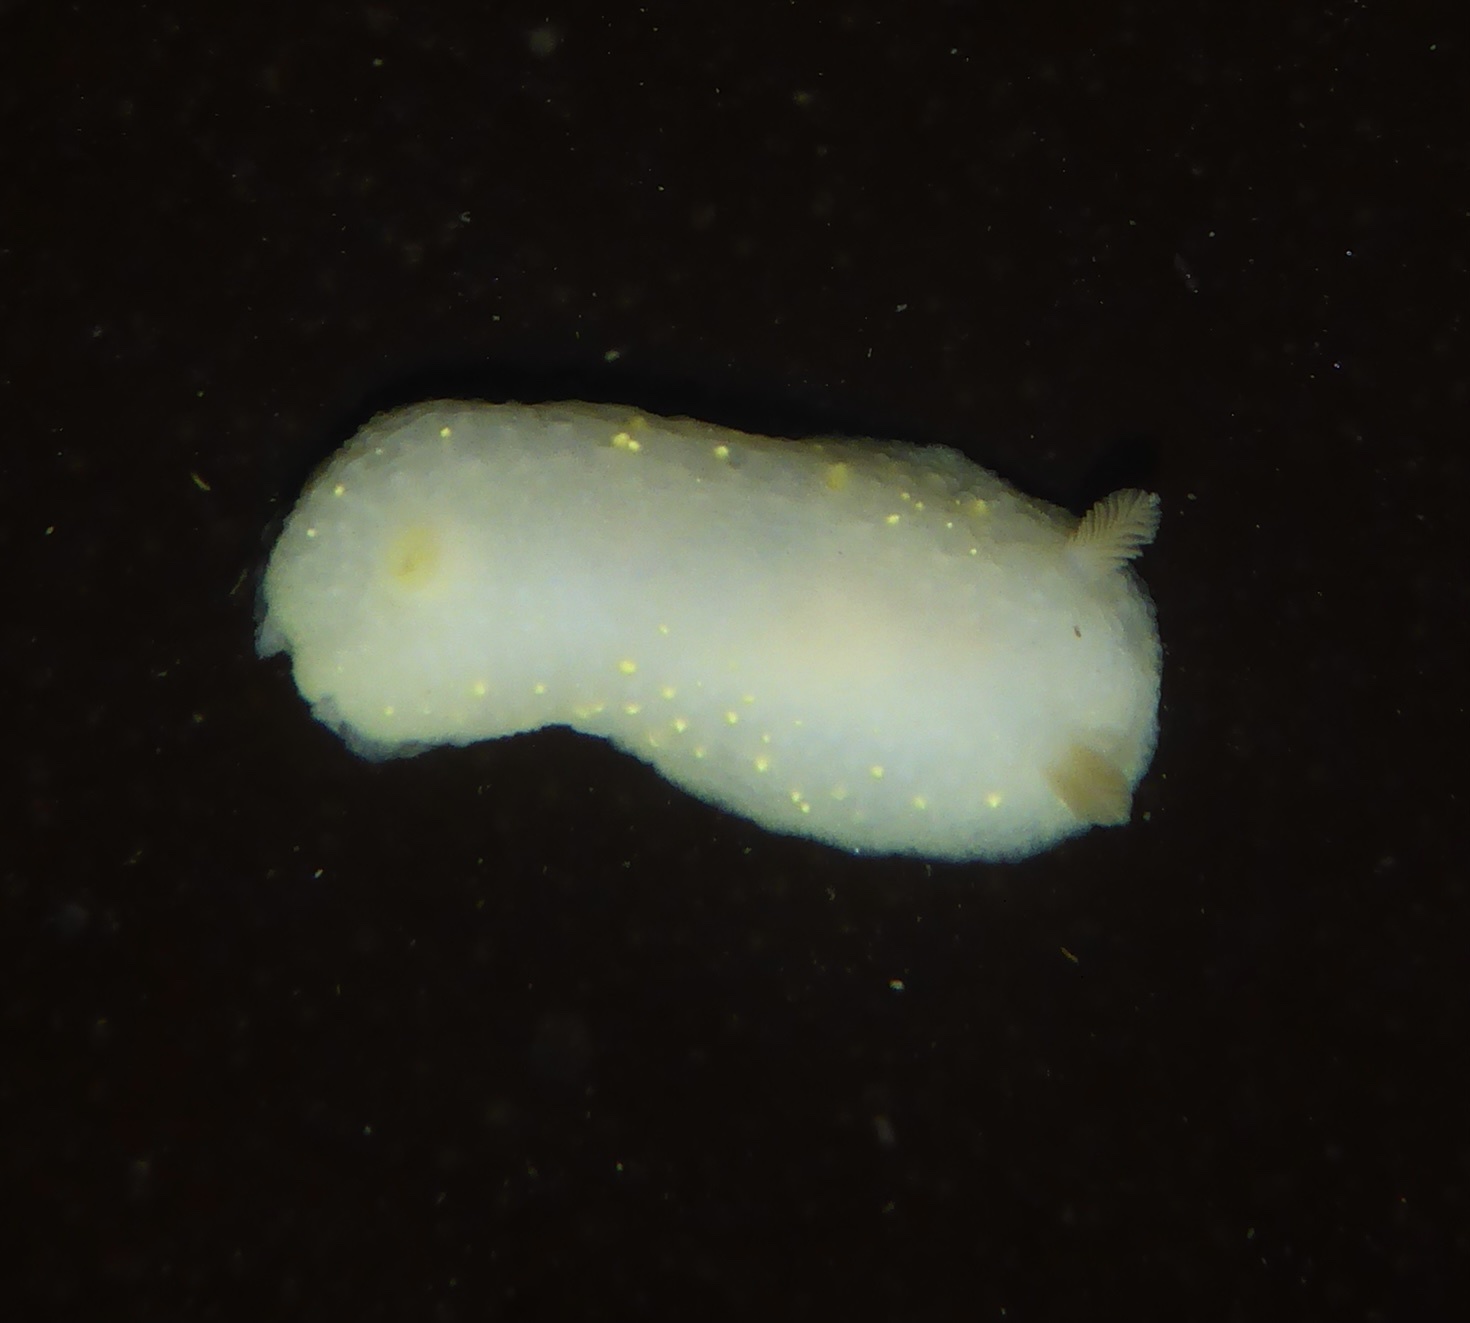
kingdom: Animalia
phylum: Mollusca
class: Gastropoda
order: Nudibranchia
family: Cadlinidae
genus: Cadlina
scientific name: Cadlina modesta
